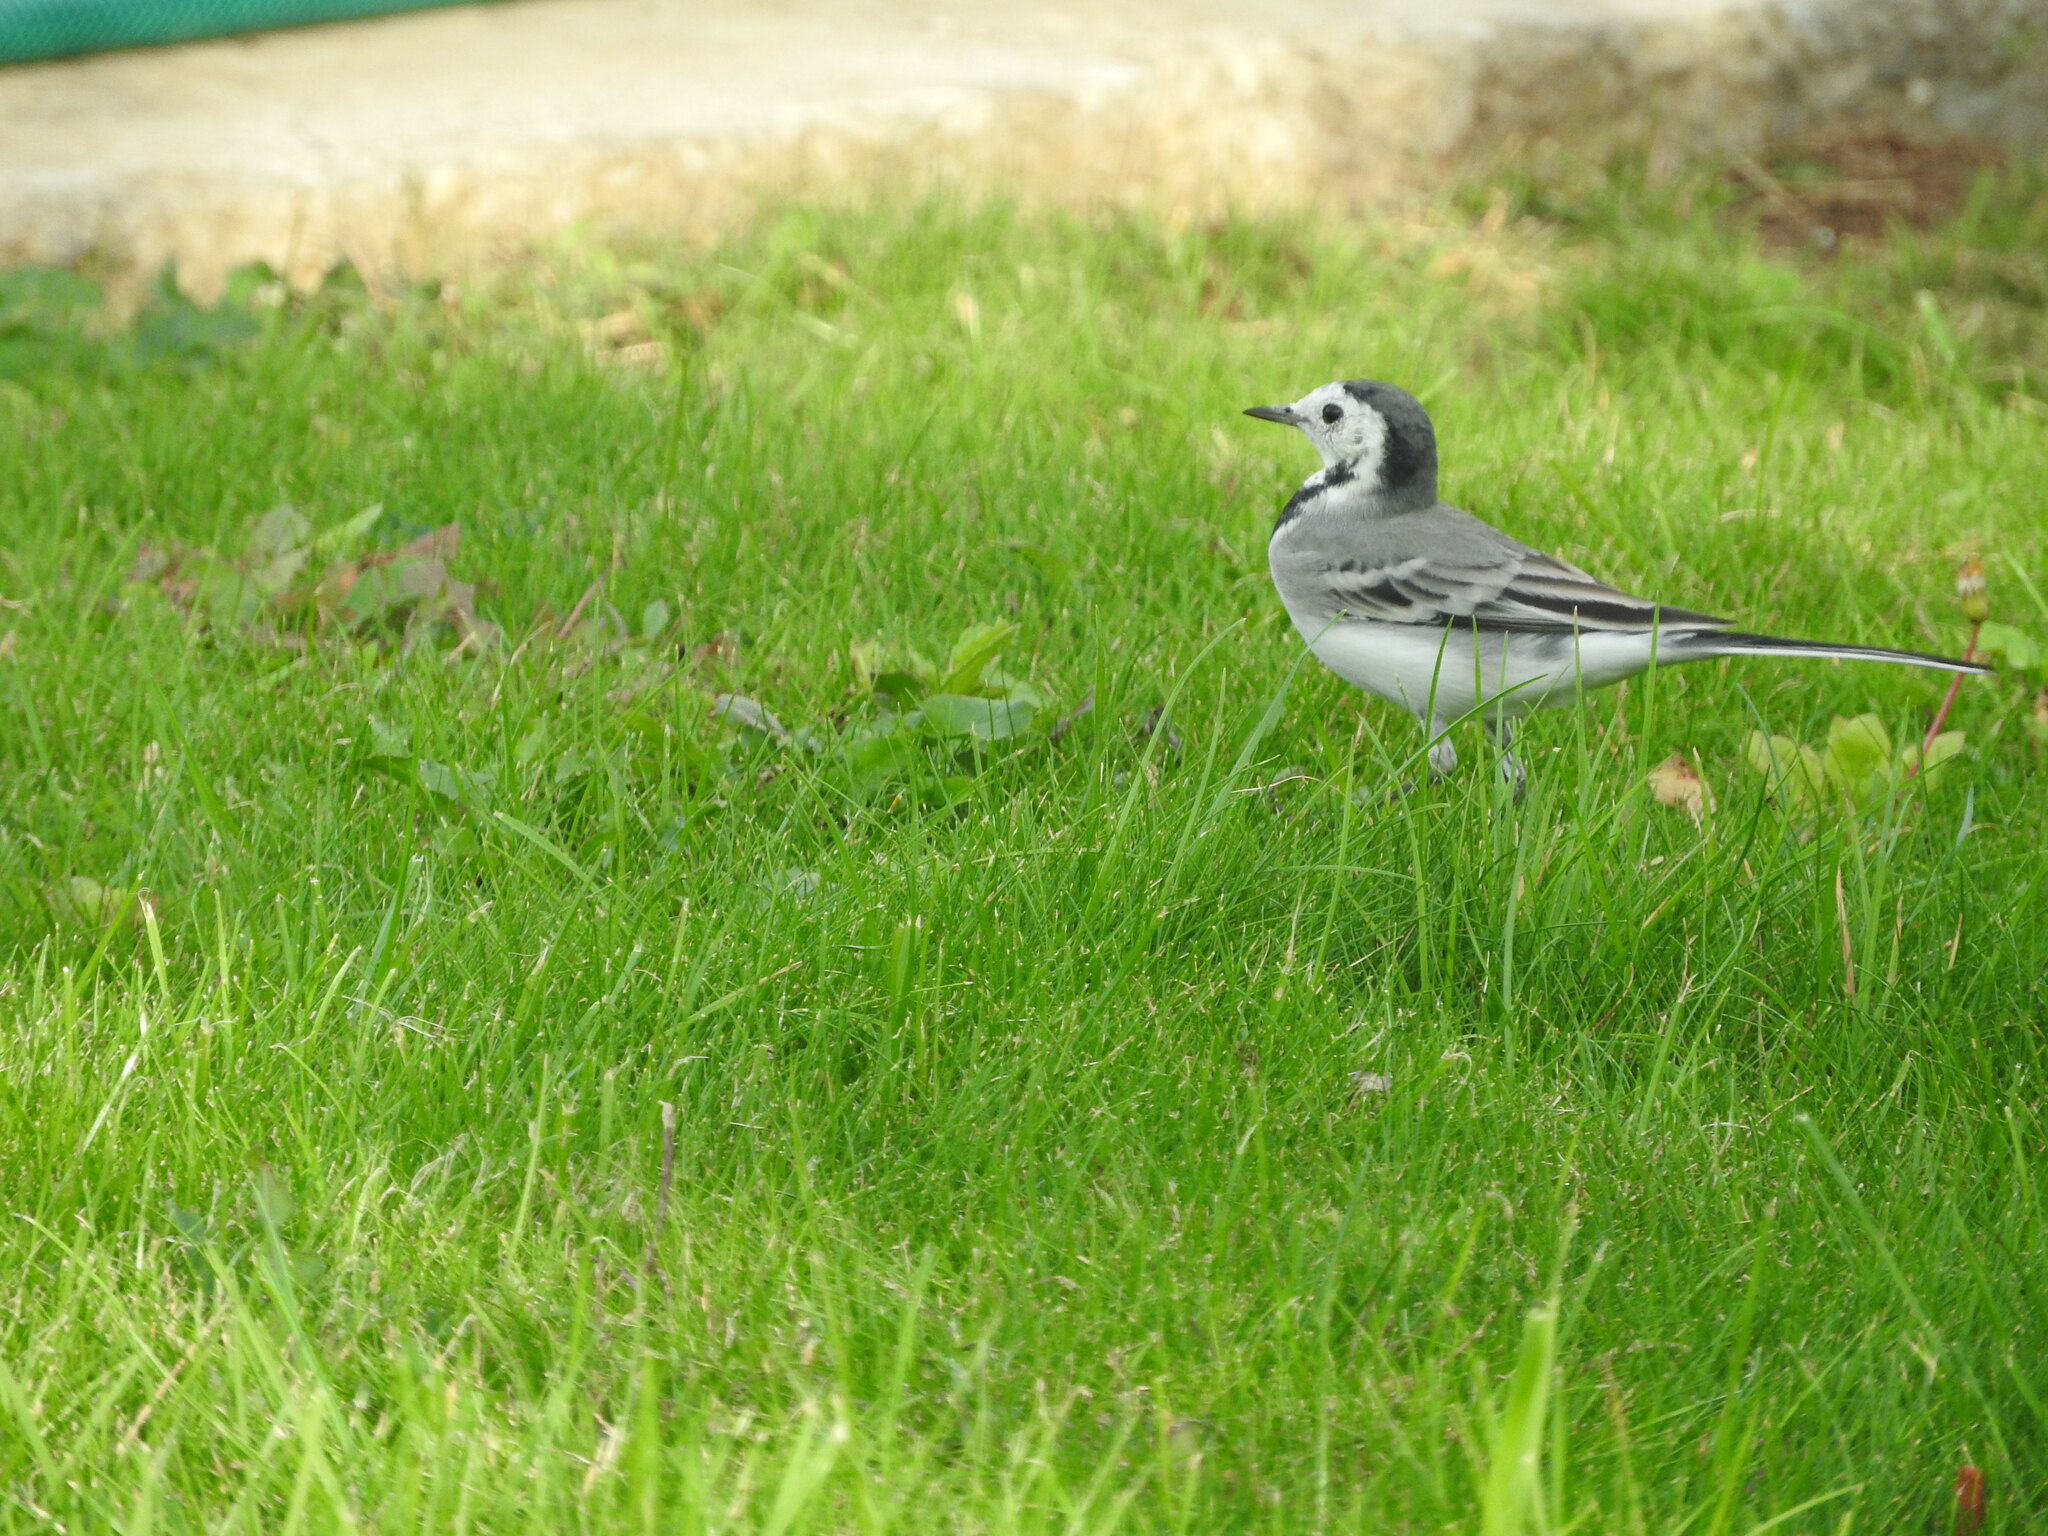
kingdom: Animalia
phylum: Chordata
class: Aves
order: Passeriformes
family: Motacillidae
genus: Motacilla
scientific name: Motacilla alba
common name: White wagtail
